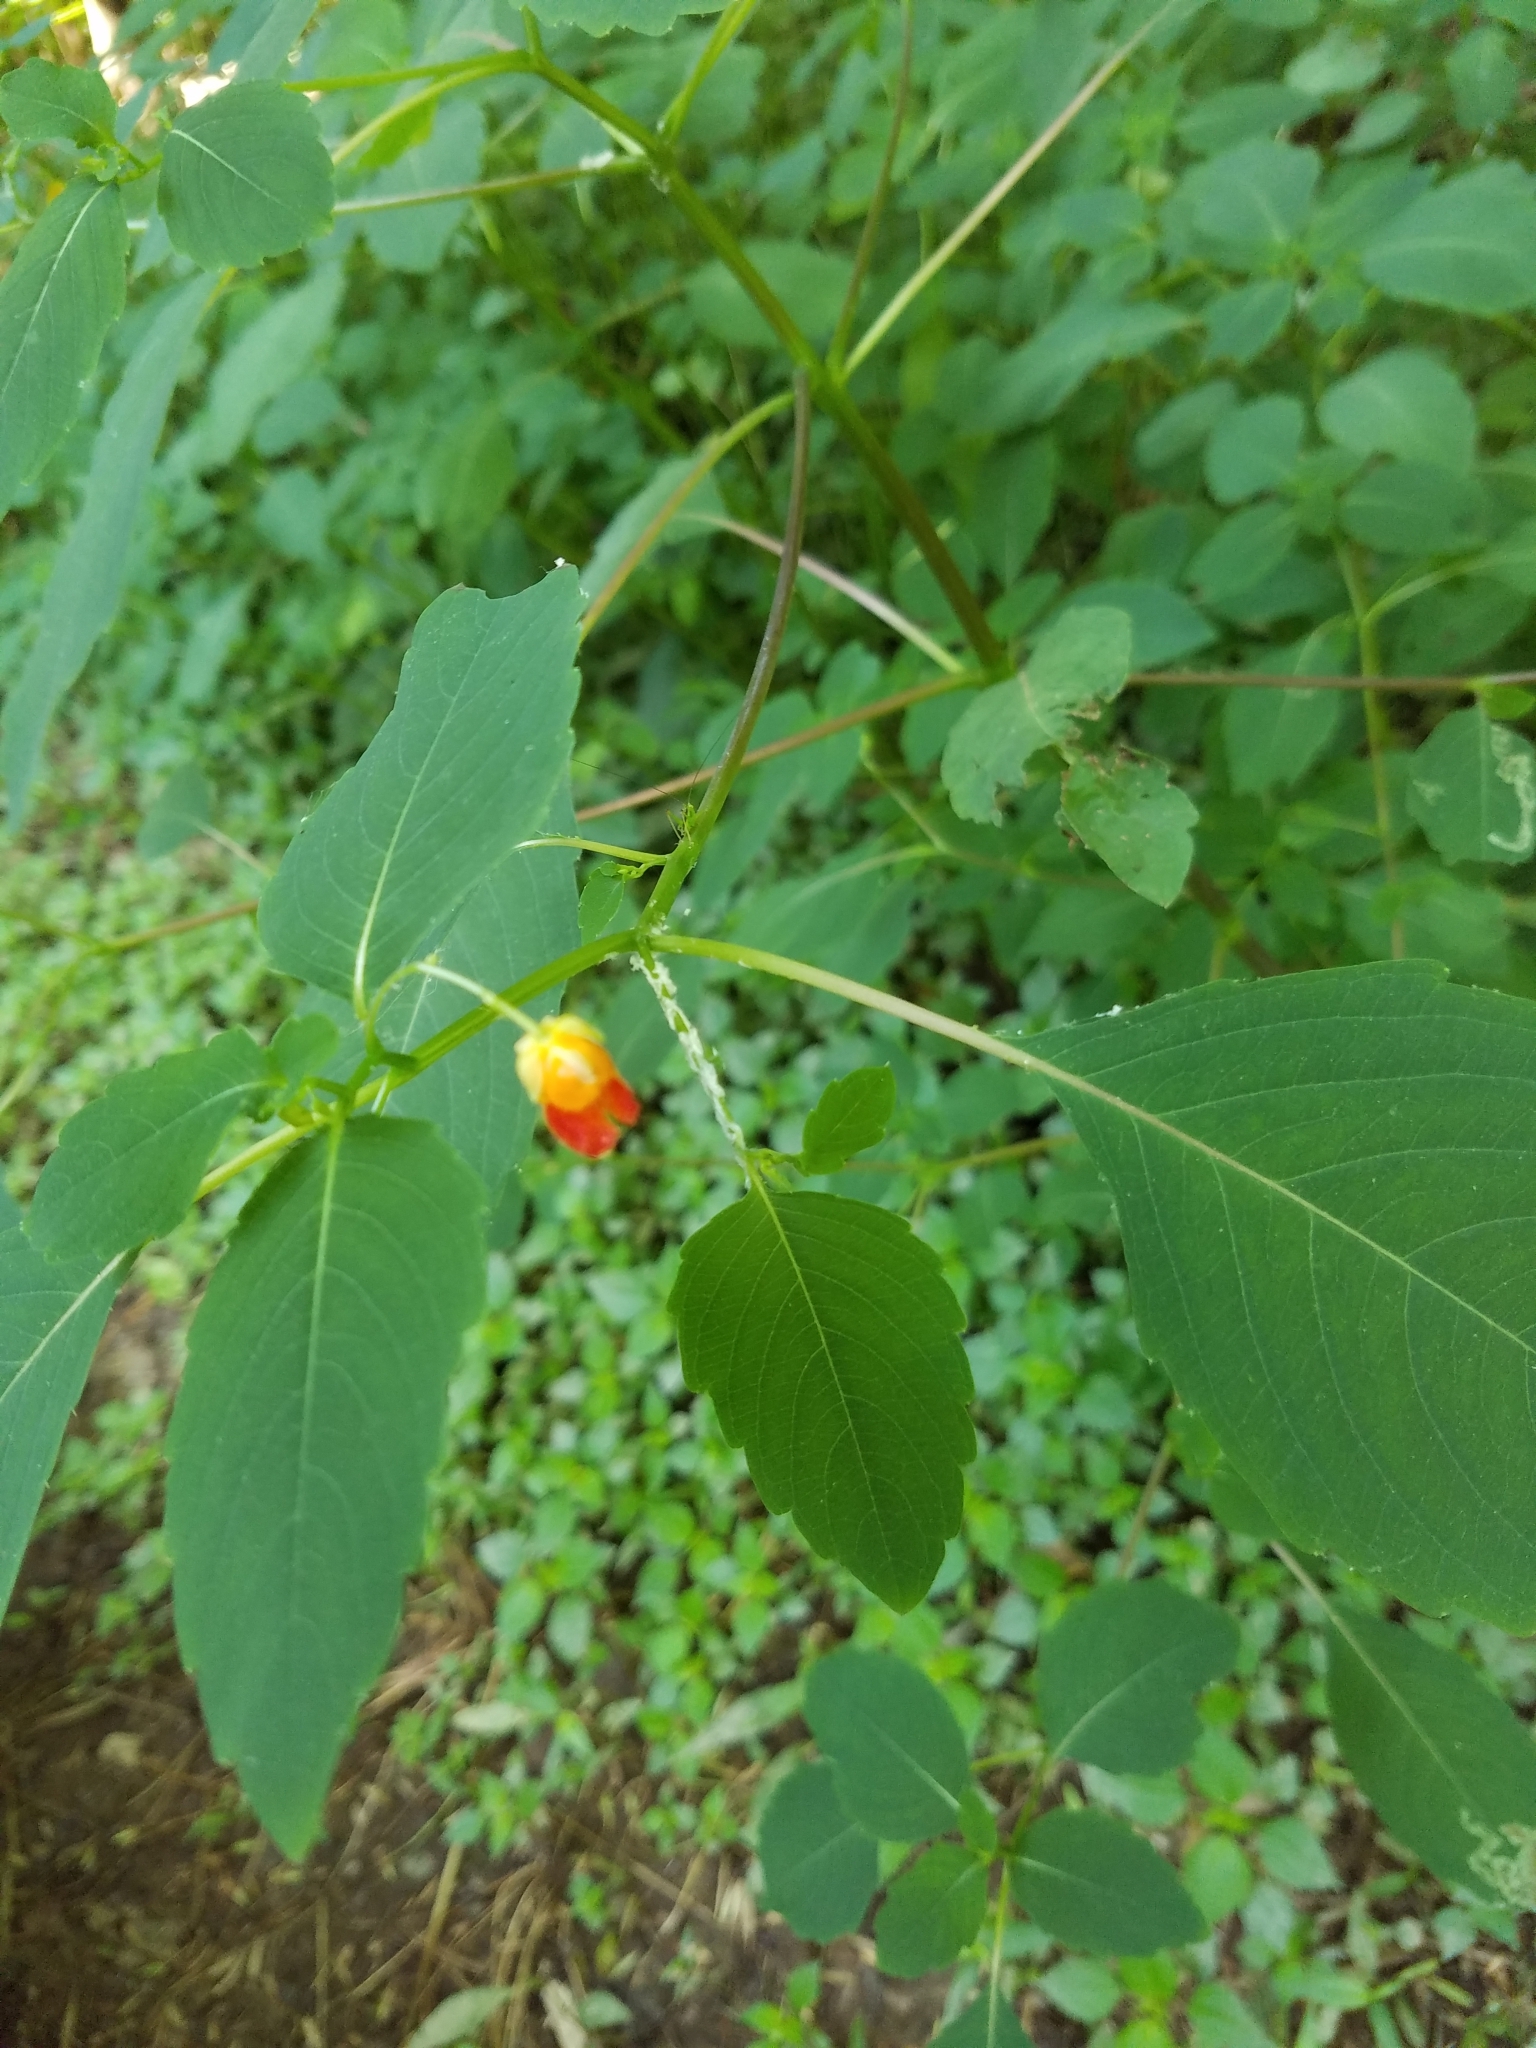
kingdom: Plantae
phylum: Tracheophyta
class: Magnoliopsida
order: Ericales
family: Balsaminaceae
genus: Impatiens
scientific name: Impatiens capensis
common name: Orange balsam
